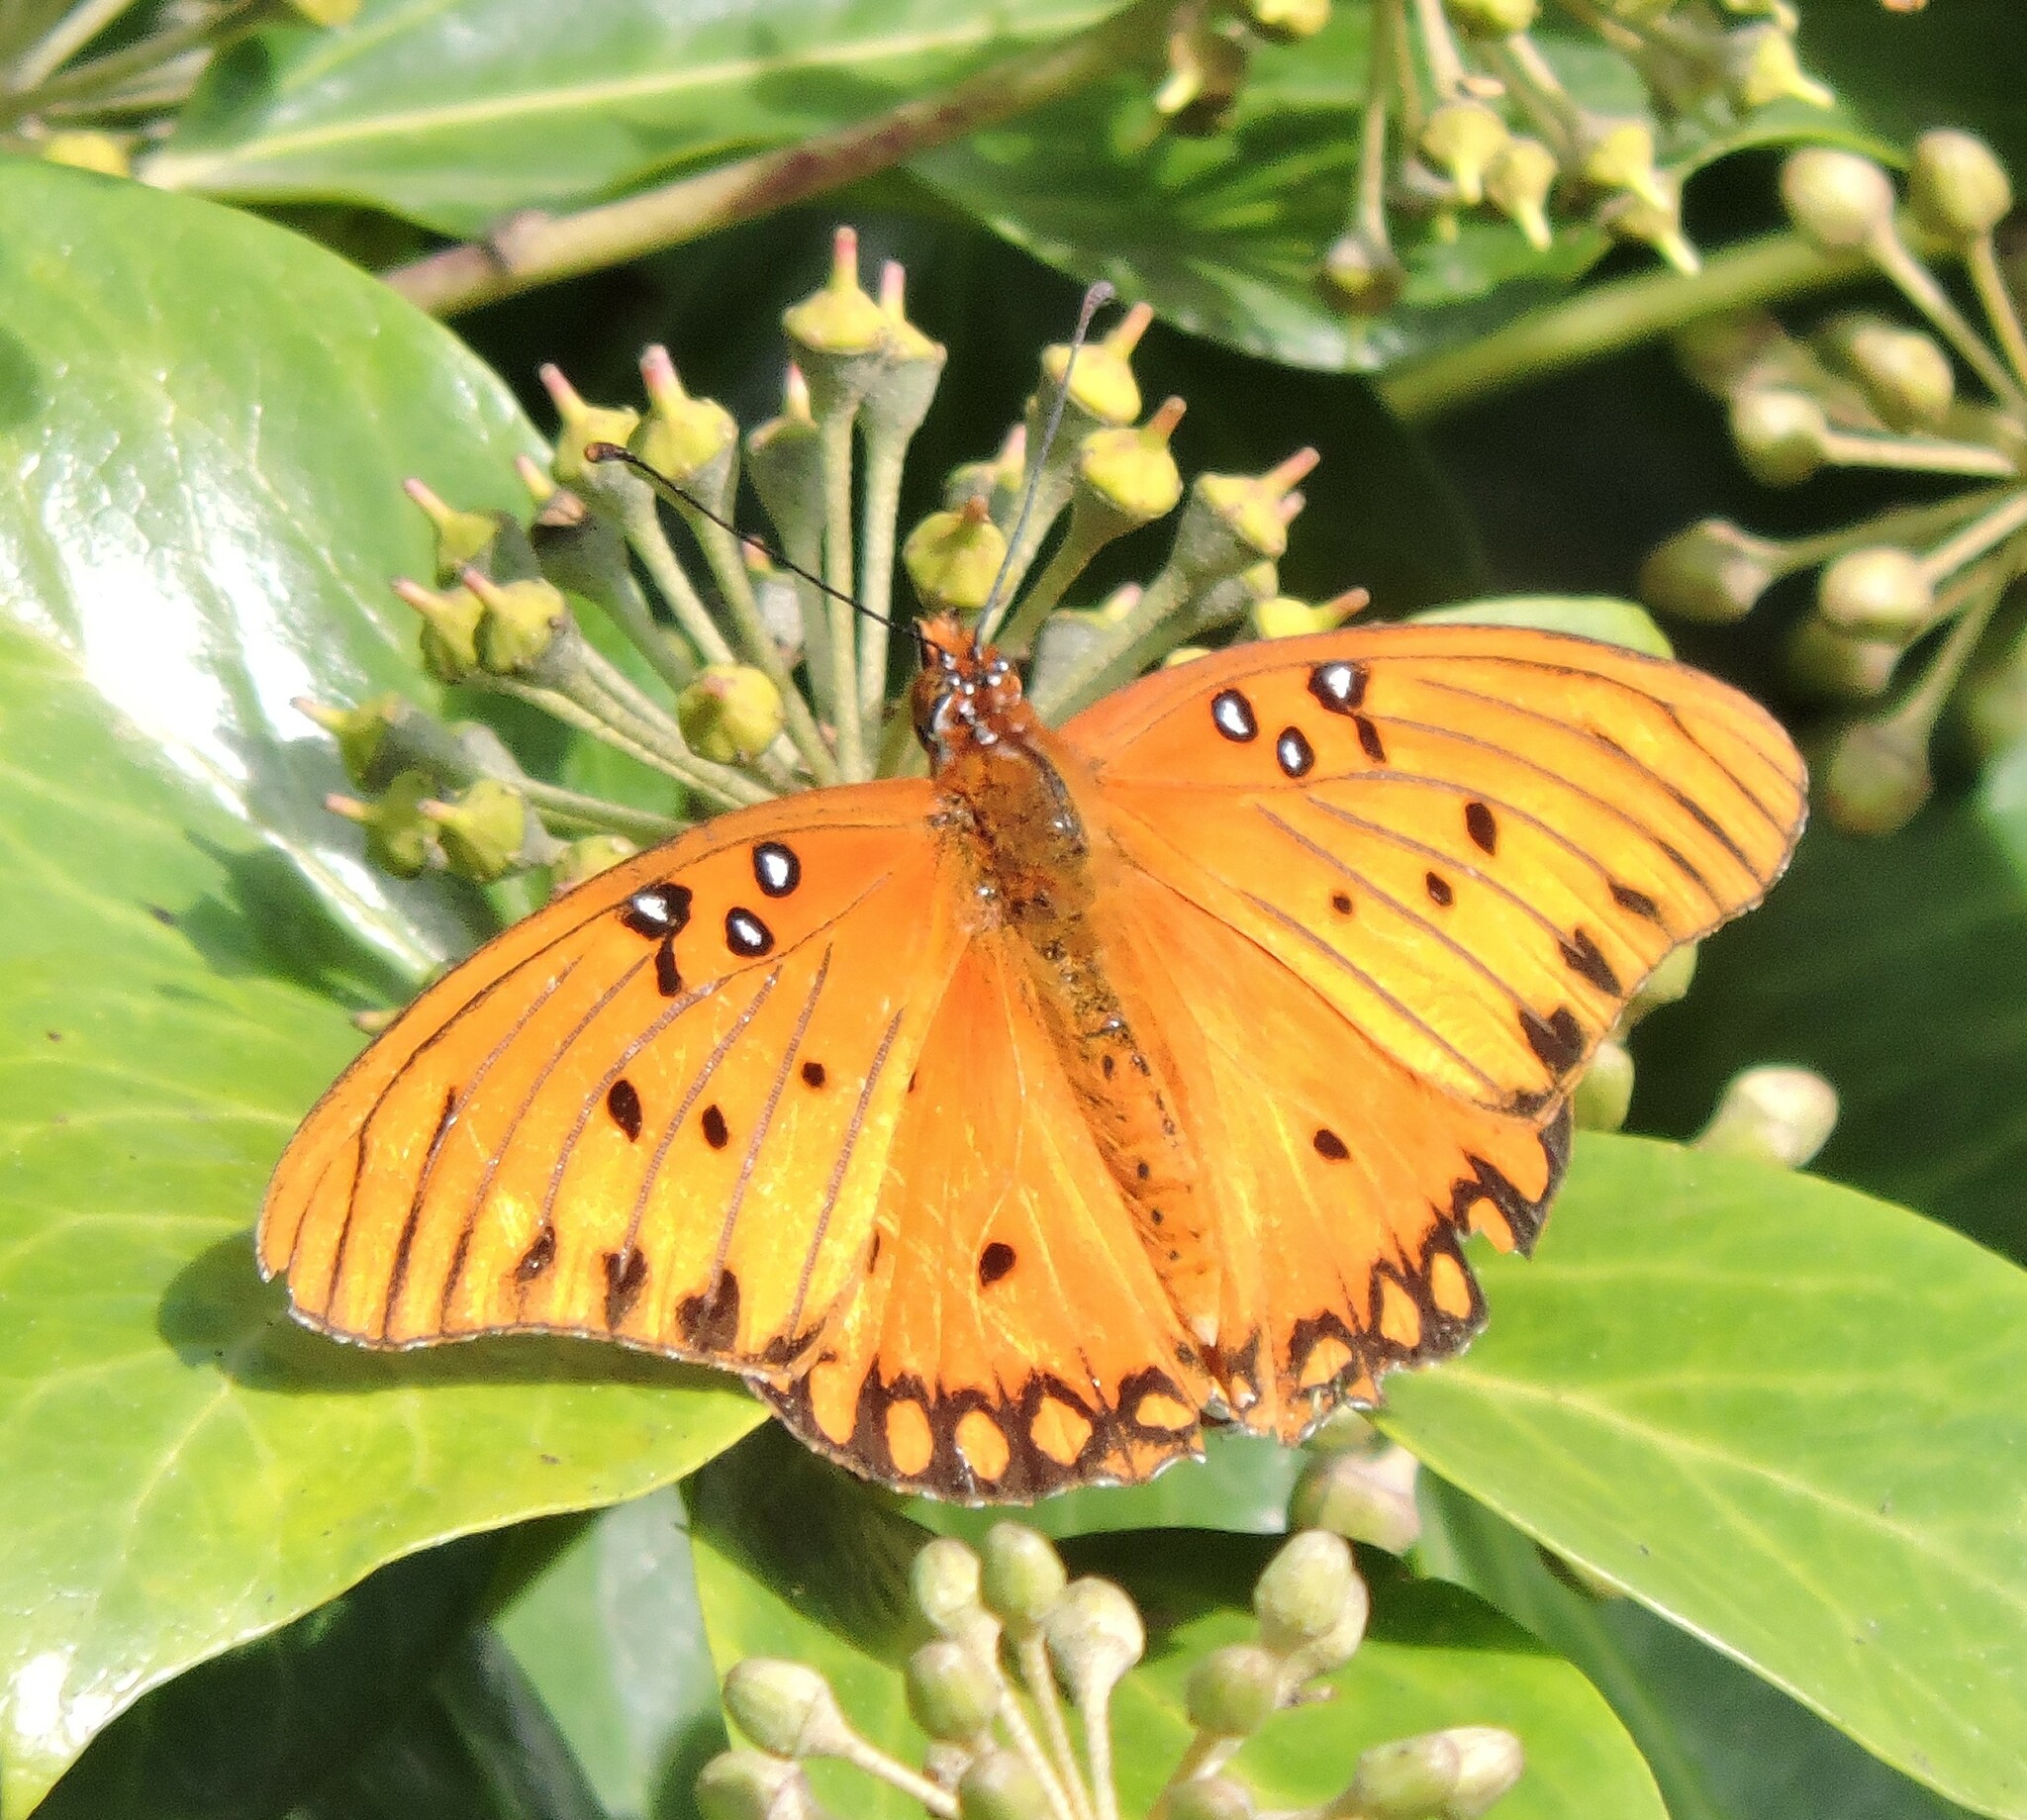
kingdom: Animalia
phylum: Arthropoda
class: Insecta
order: Lepidoptera
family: Nymphalidae
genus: Dione
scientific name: Dione vanillae
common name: Gulf fritillary
